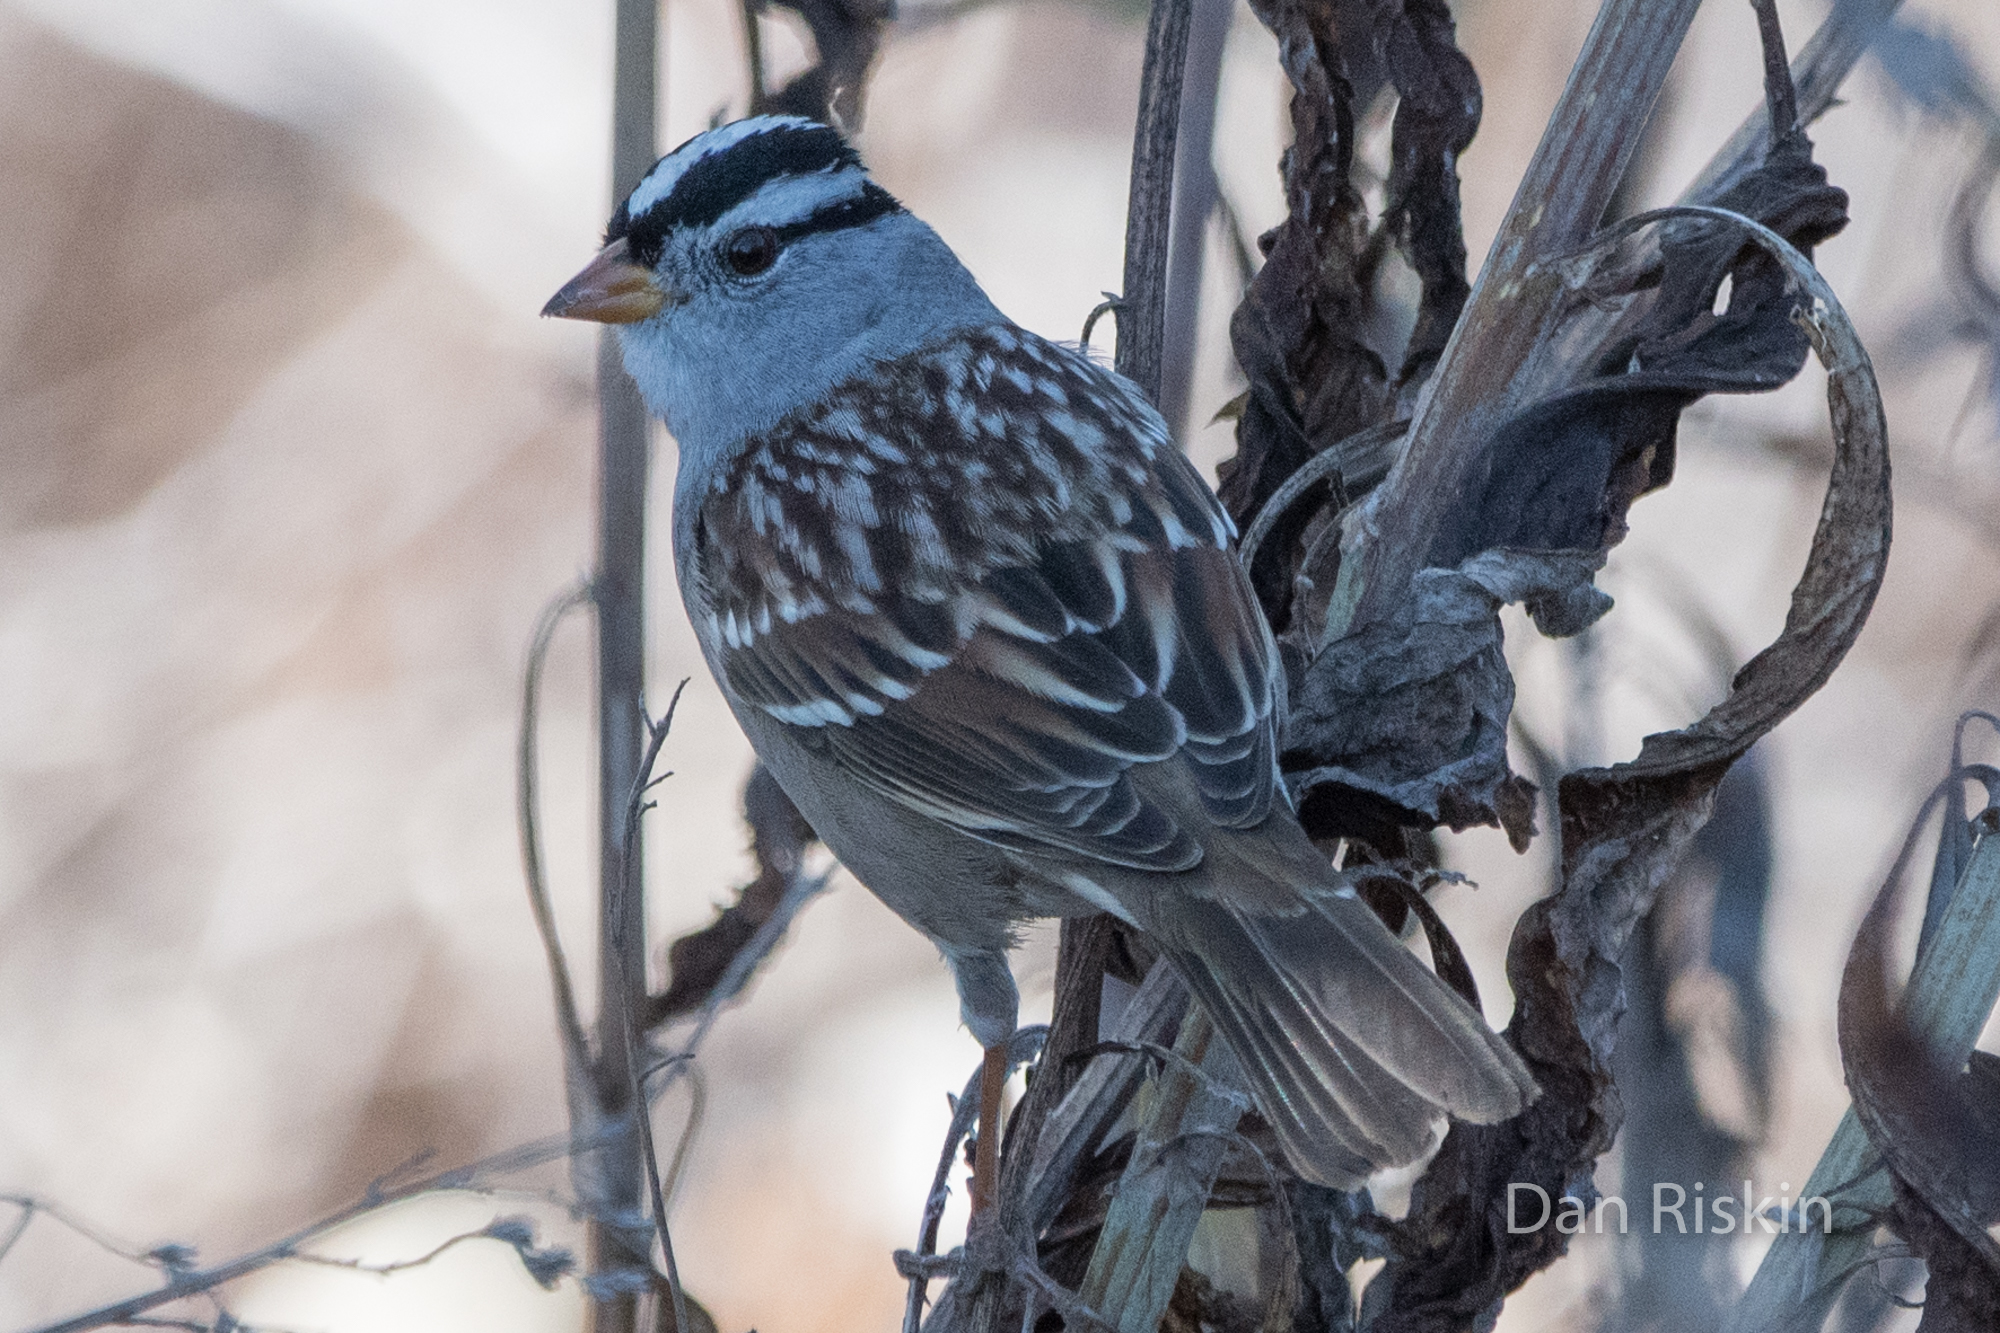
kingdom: Animalia
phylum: Chordata
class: Aves
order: Passeriformes
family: Passerellidae
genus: Zonotrichia
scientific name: Zonotrichia leucophrys
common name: White-crowned sparrow
